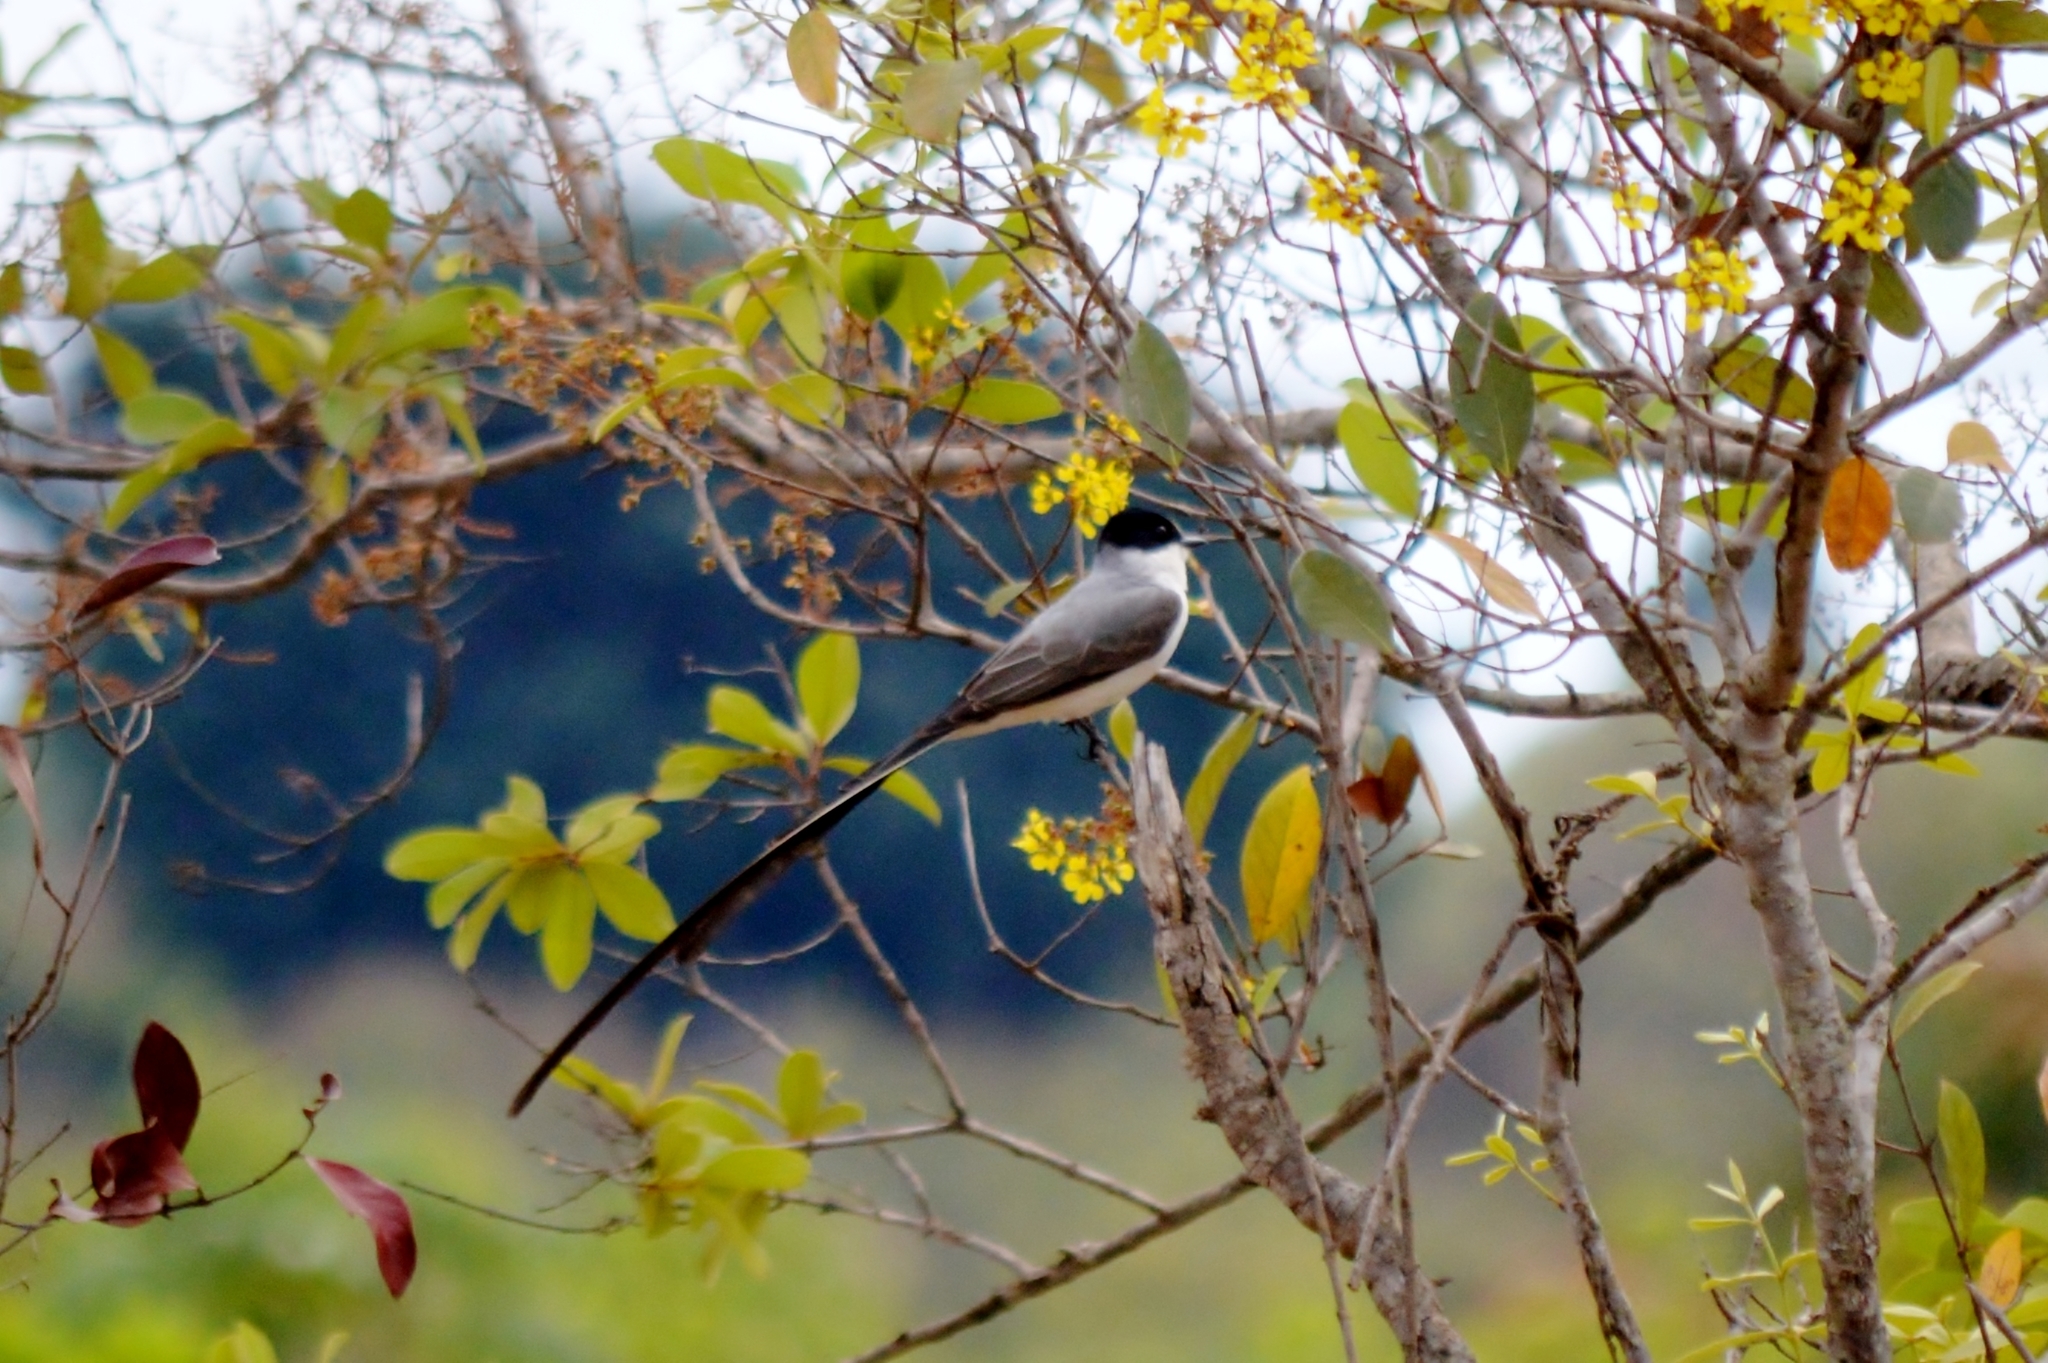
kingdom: Animalia
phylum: Chordata
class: Aves
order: Passeriformes
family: Tyrannidae
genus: Tyrannus
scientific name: Tyrannus savana
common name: Fork-tailed flycatcher
